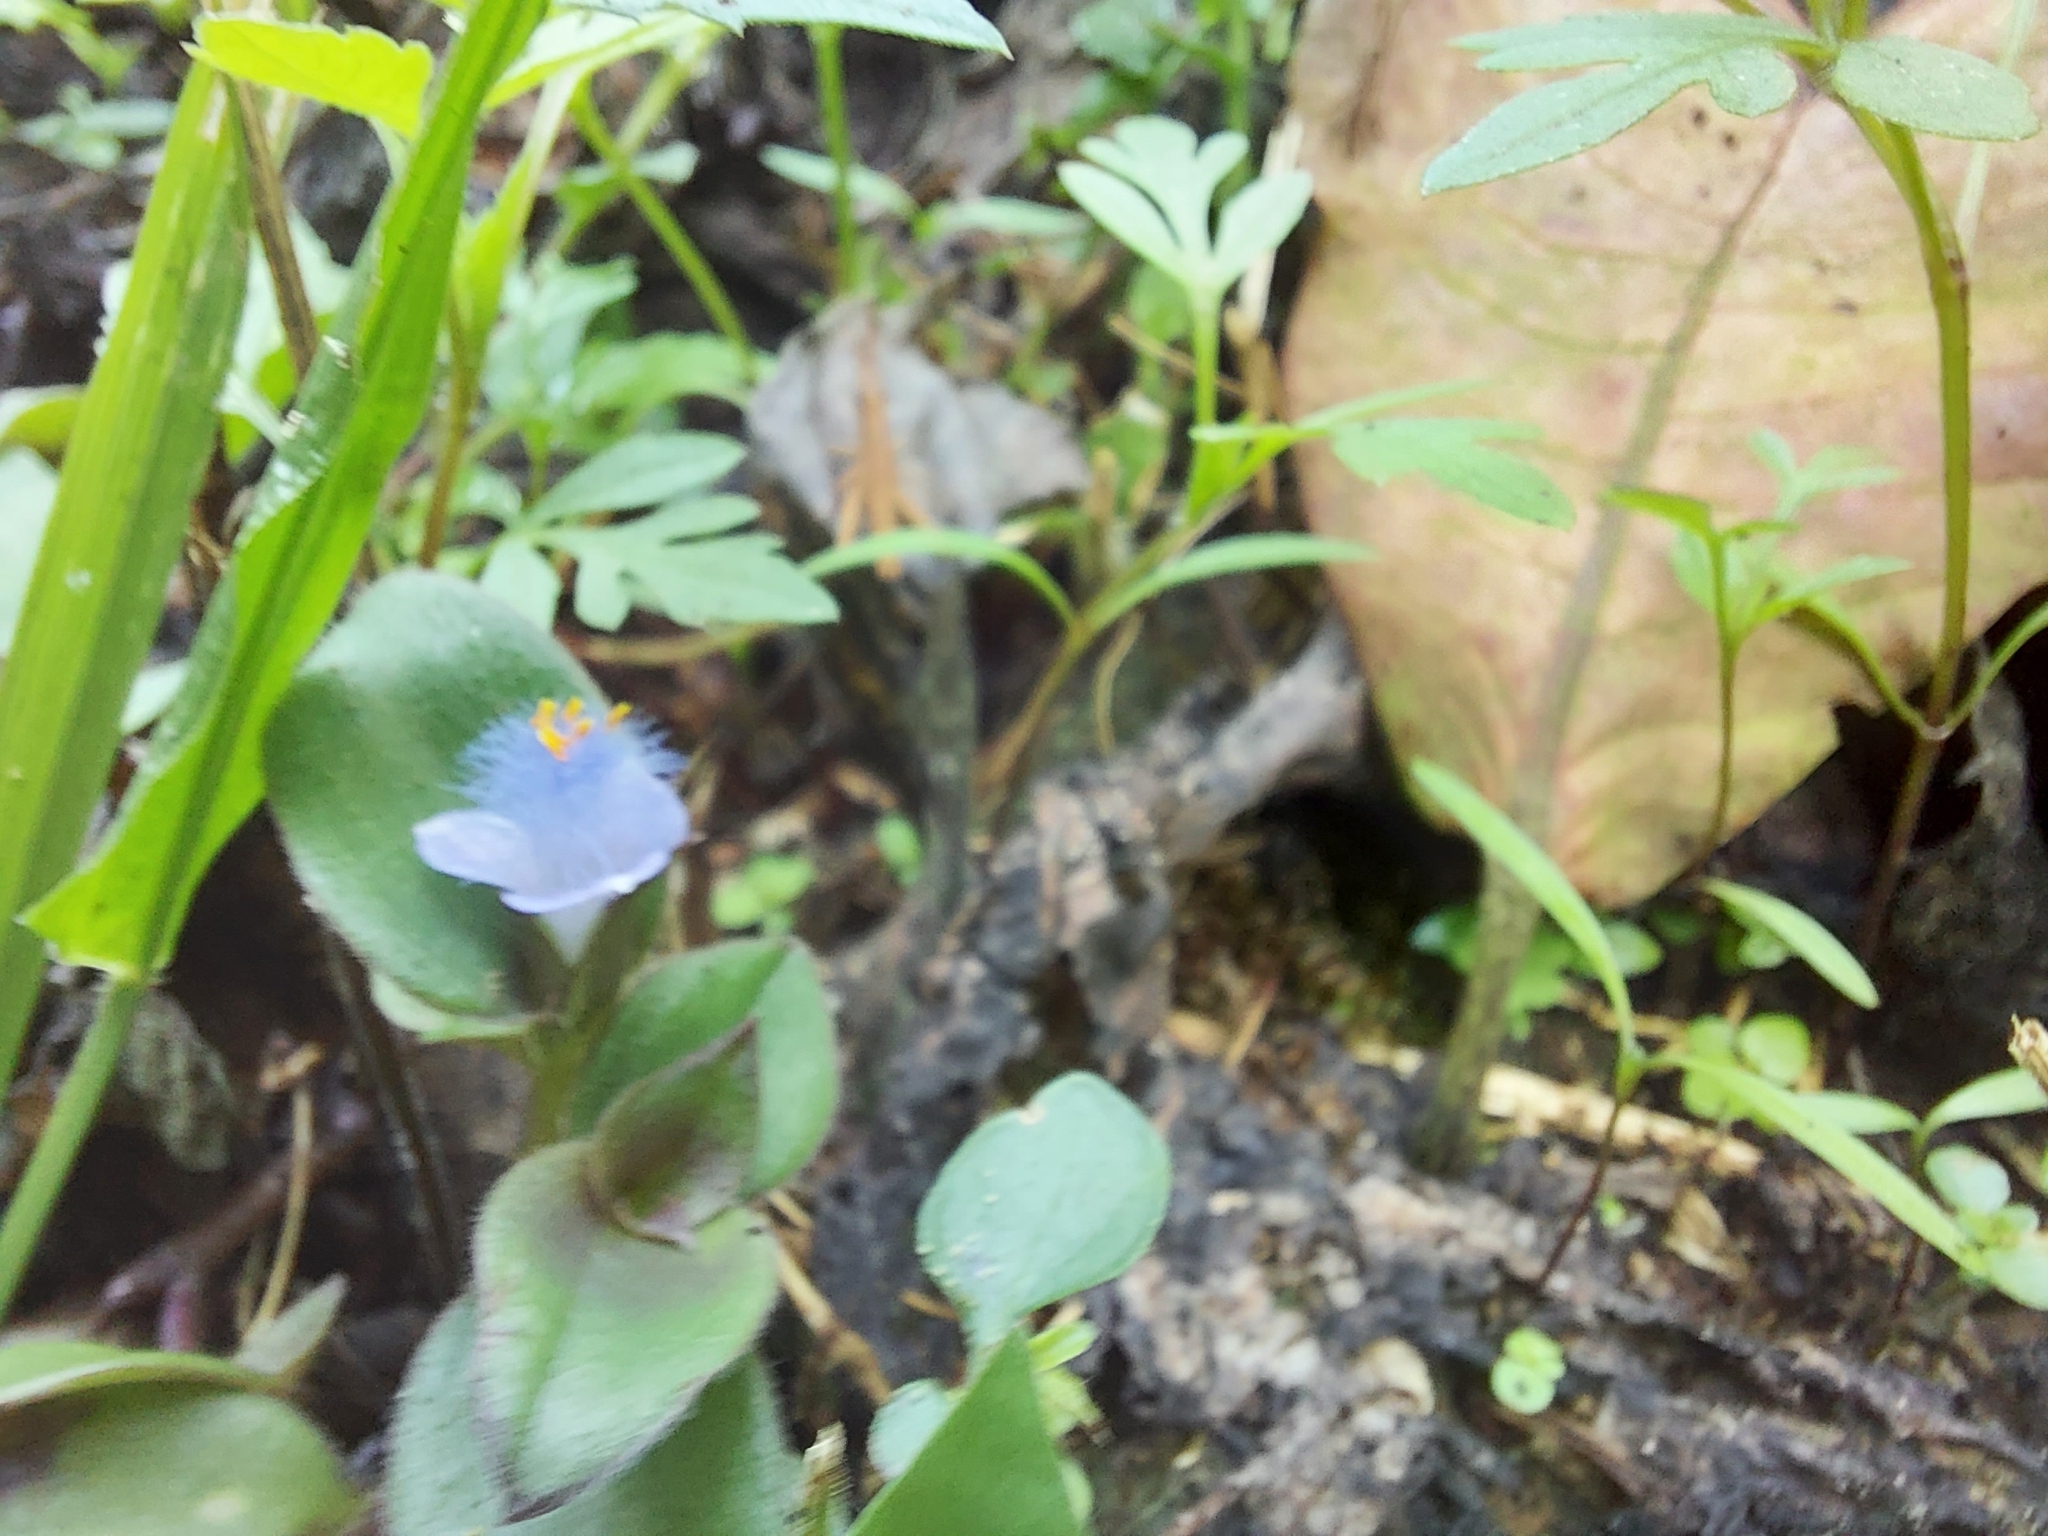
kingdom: Plantae
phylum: Tracheophyta
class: Liliopsida
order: Commelinales
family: Commelinaceae
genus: Cyanotis
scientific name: Cyanotis villosa
